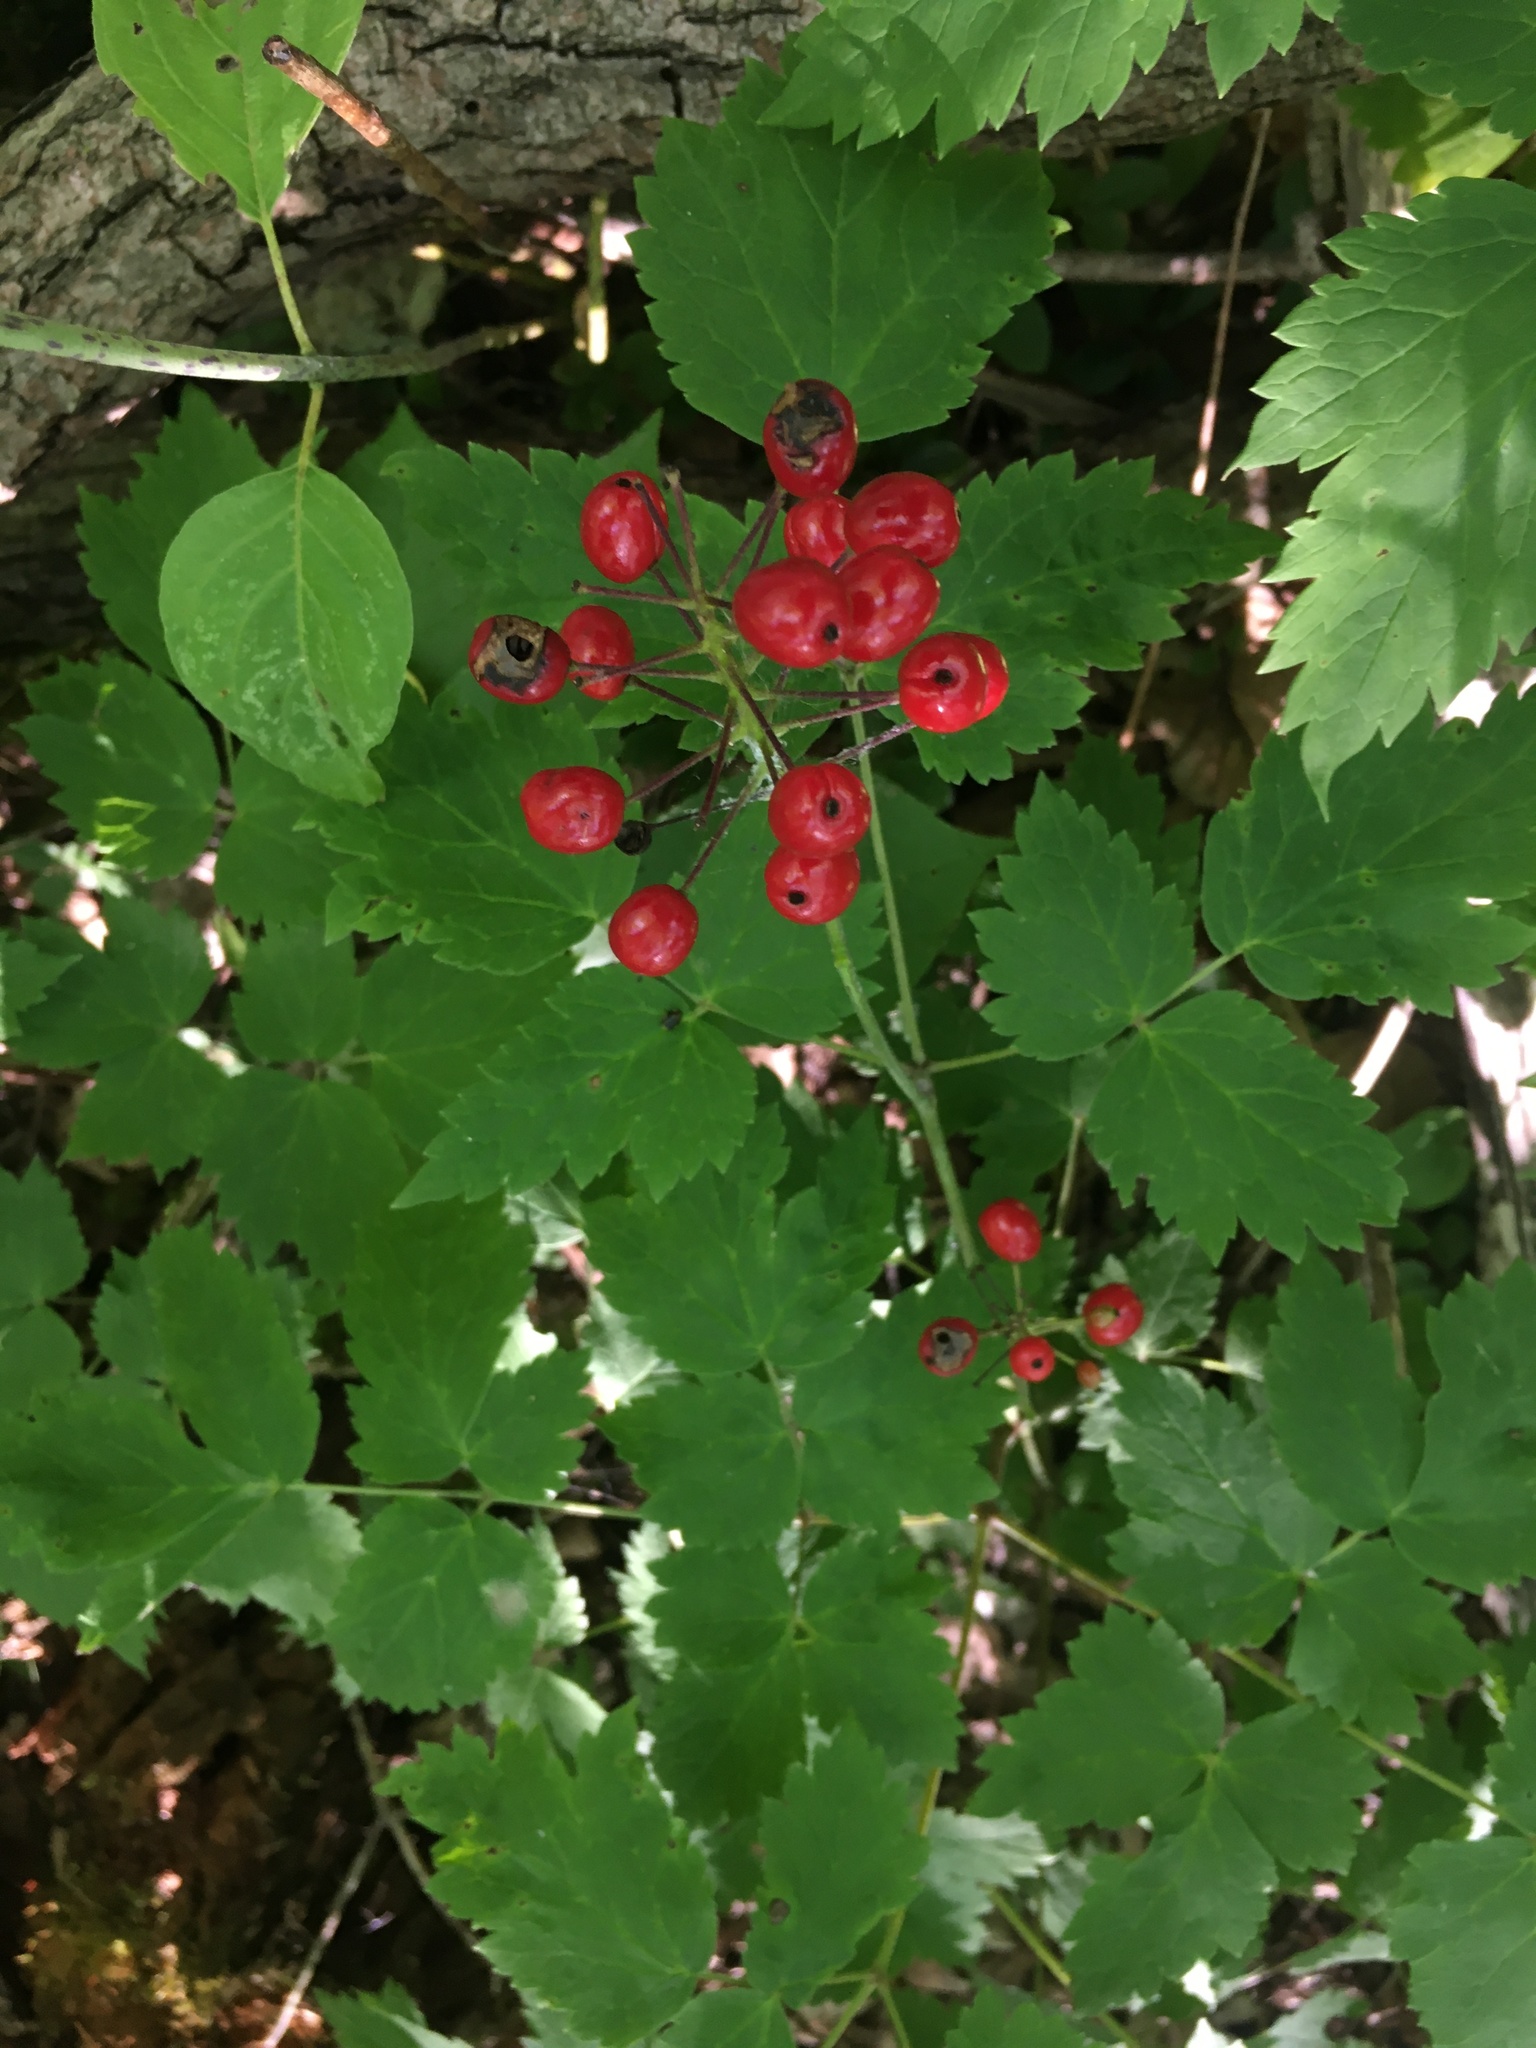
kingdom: Plantae
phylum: Tracheophyta
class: Magnoliopsida
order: Ranunculales
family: Ranunculaceae
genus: Actaea
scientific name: Actaea rubra
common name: Red baneberry
